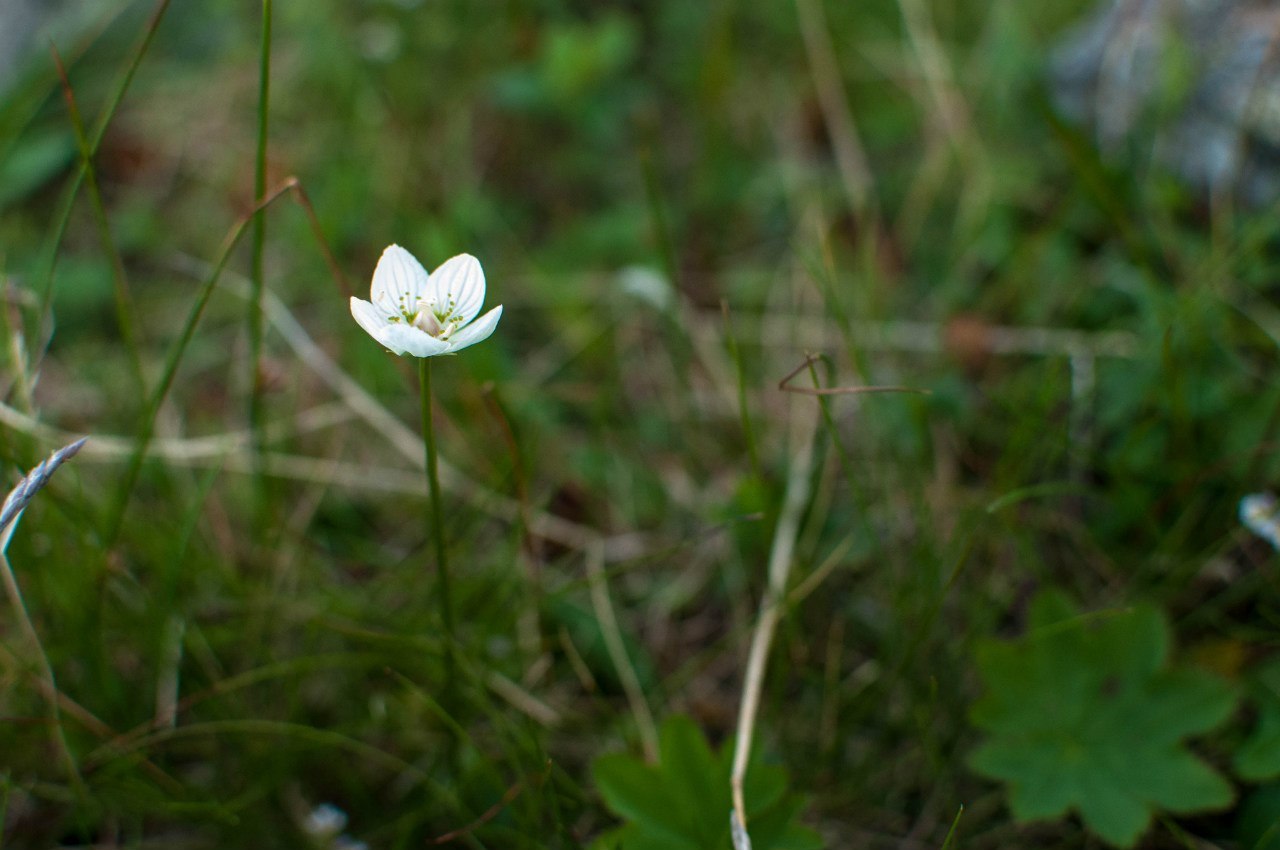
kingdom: Plantae
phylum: Tracheophyta
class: Magnoliopsida
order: Celastrales
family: Parnassiaceae
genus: Parnassia
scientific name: Parnassia palustris
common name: Grass-of-parnassus
